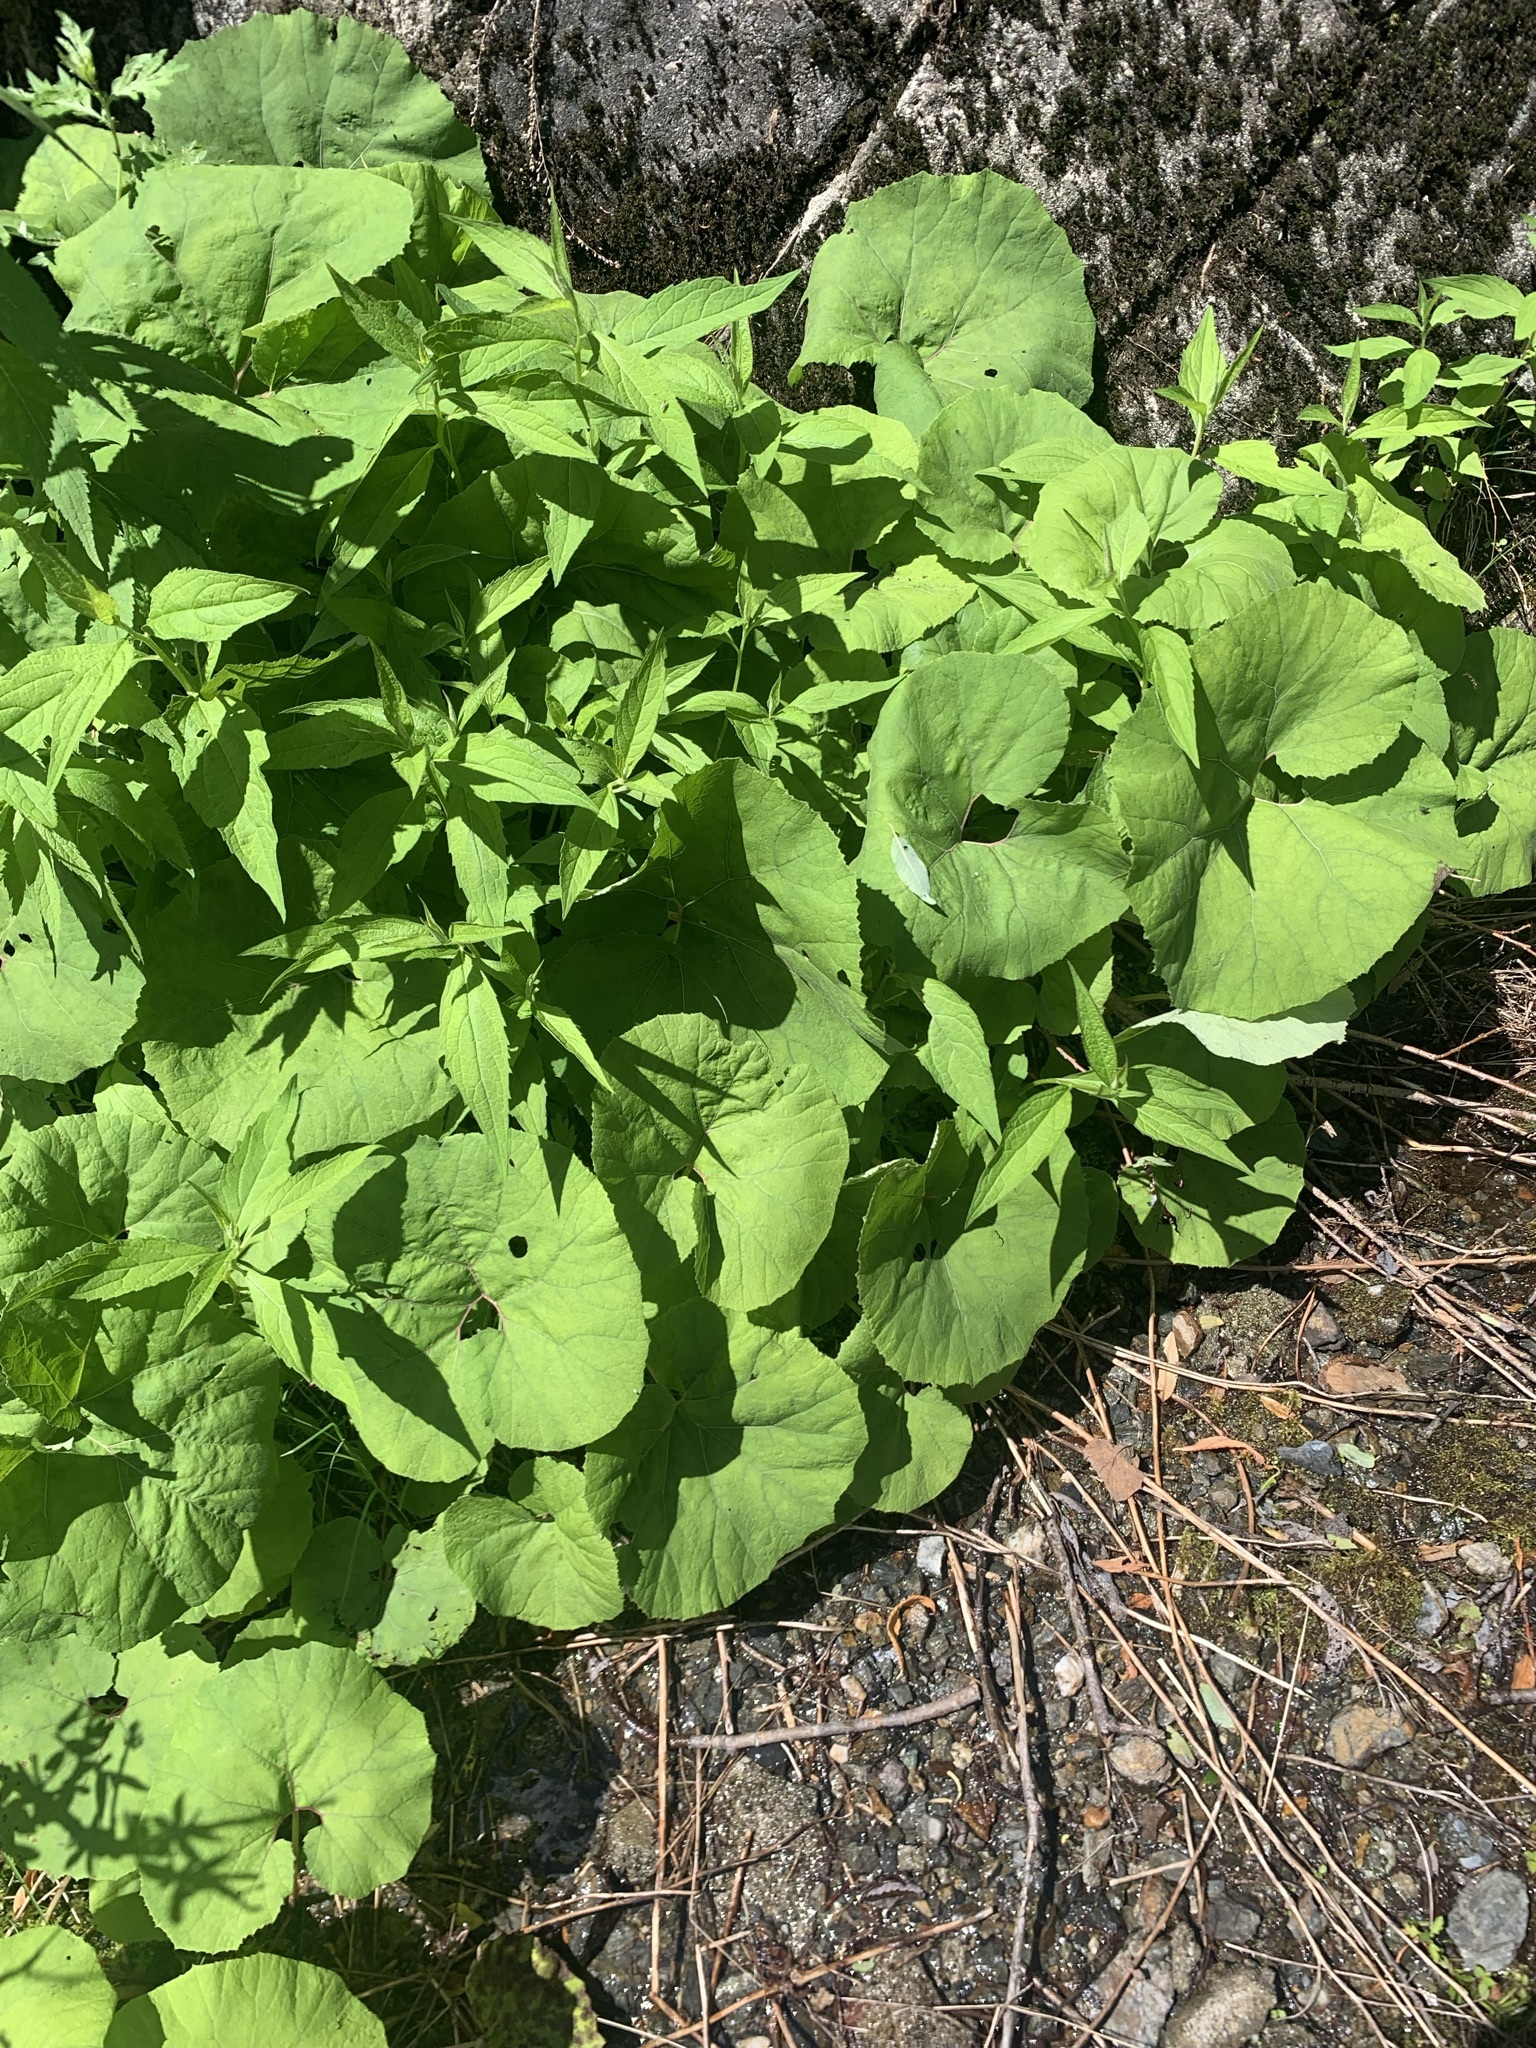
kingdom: Plantae
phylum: Tracheophyta
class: Magnoliopsida
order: Asterales
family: Asteraceae
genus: Petasites
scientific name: Petasites japonicus
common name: Giant butterbur
